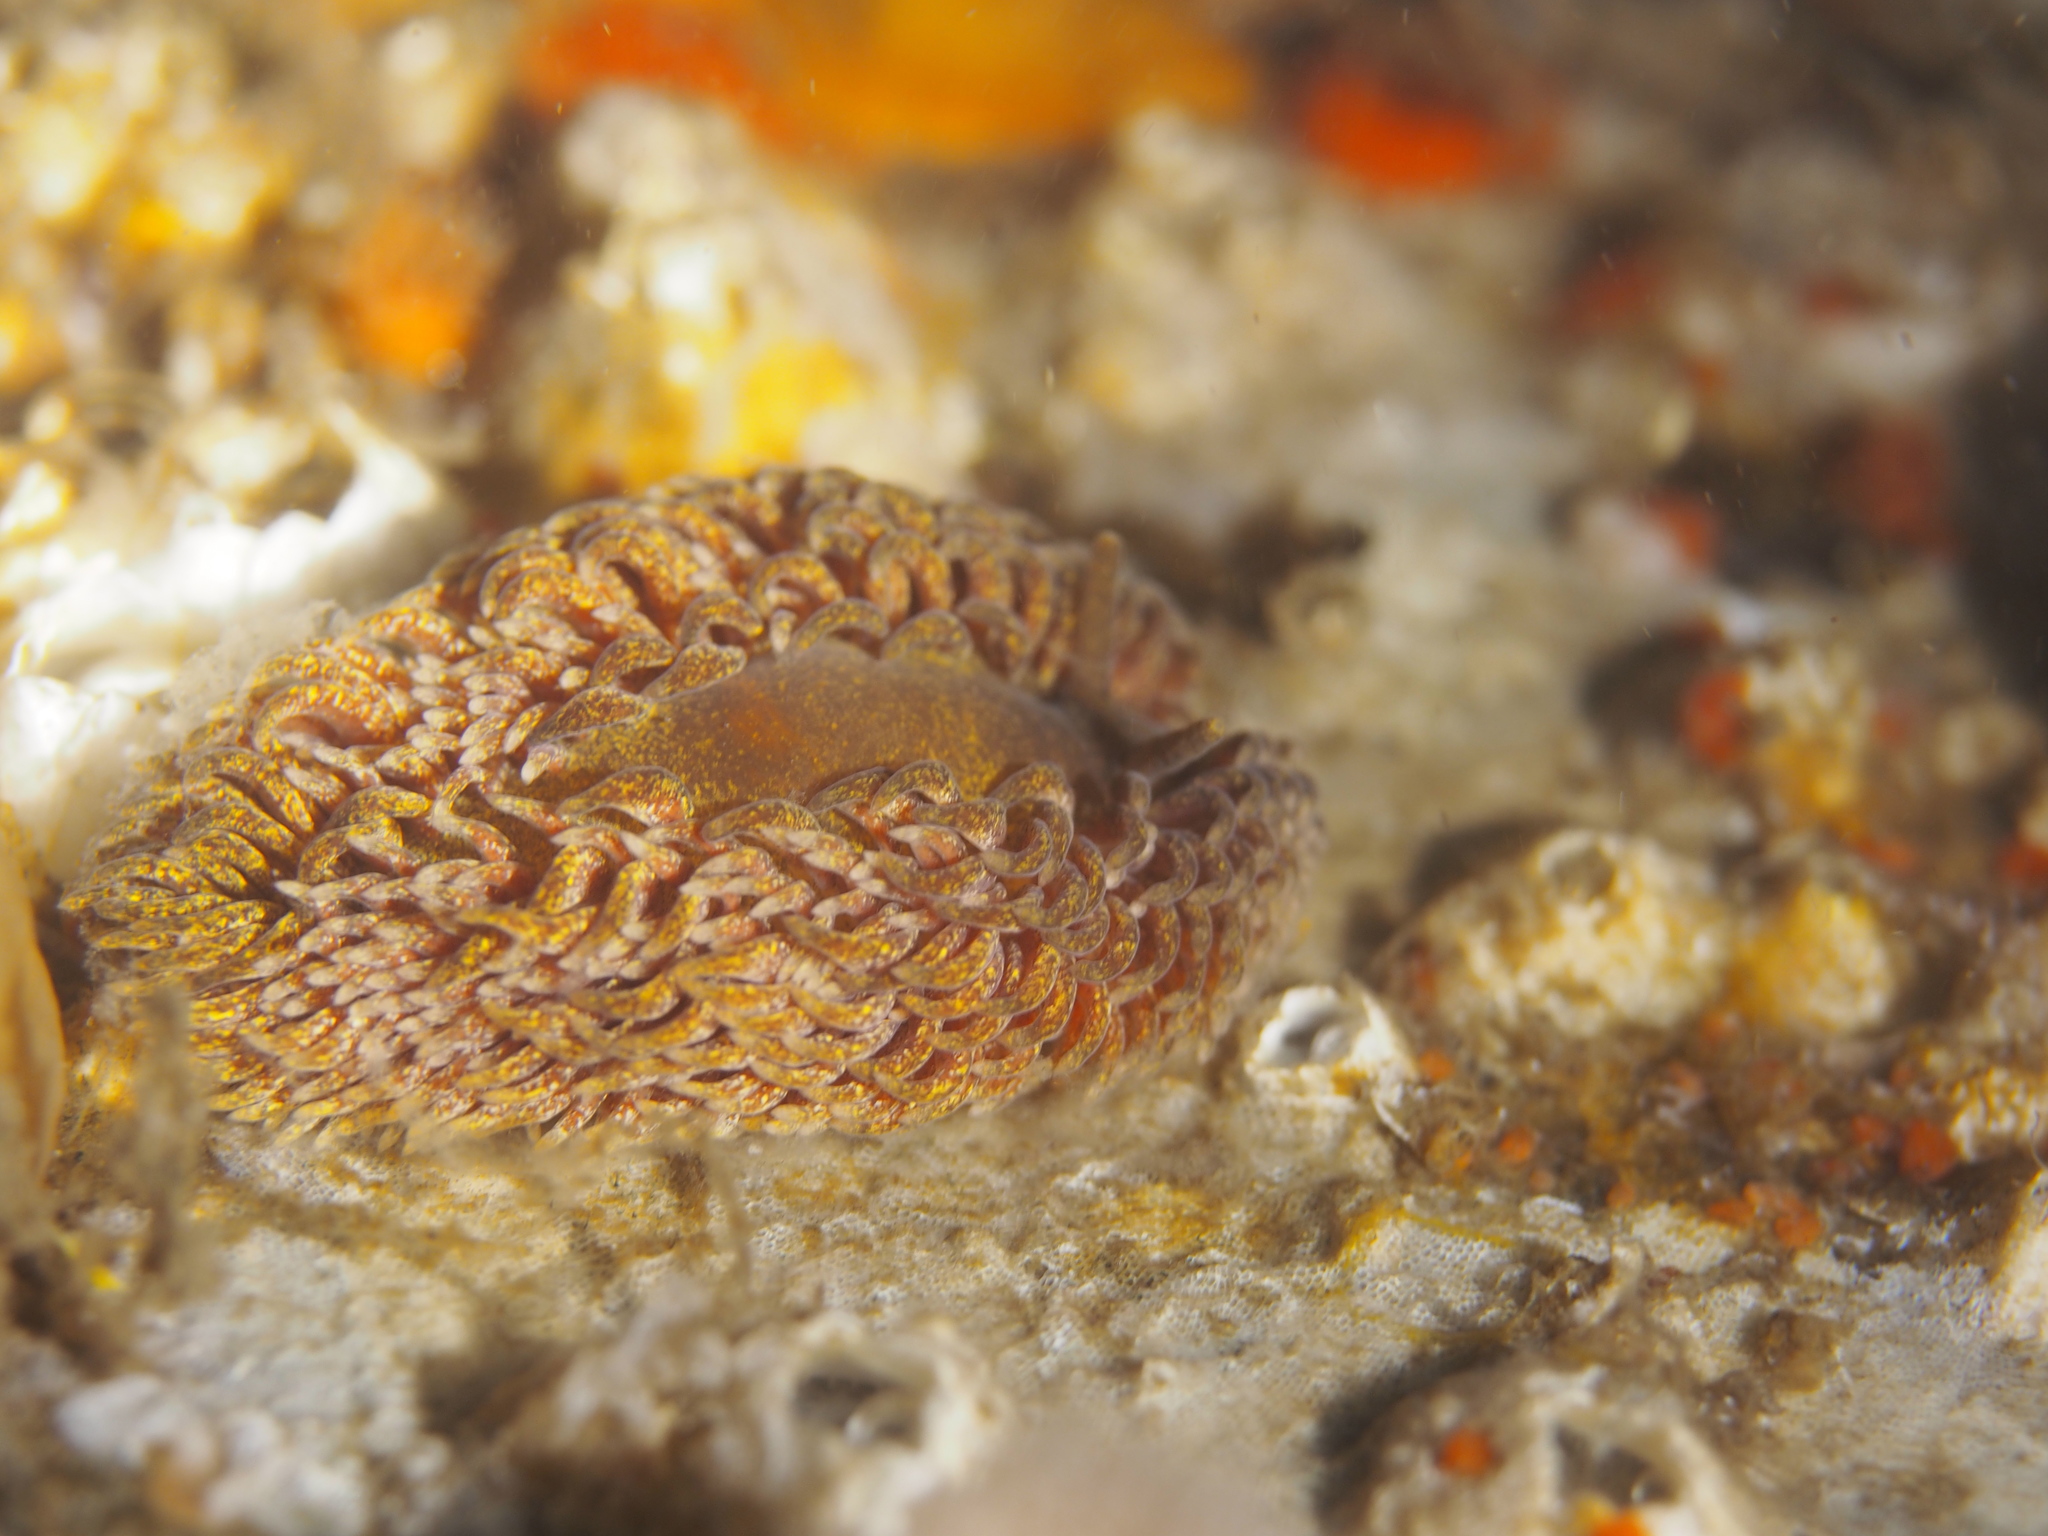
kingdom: Animalia
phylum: Mollusca
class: Gastropoda
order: Nudibranchia
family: Aeolidiidae
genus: Aeolidia
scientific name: Aeolidia papillosa
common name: Common grey sea slug
